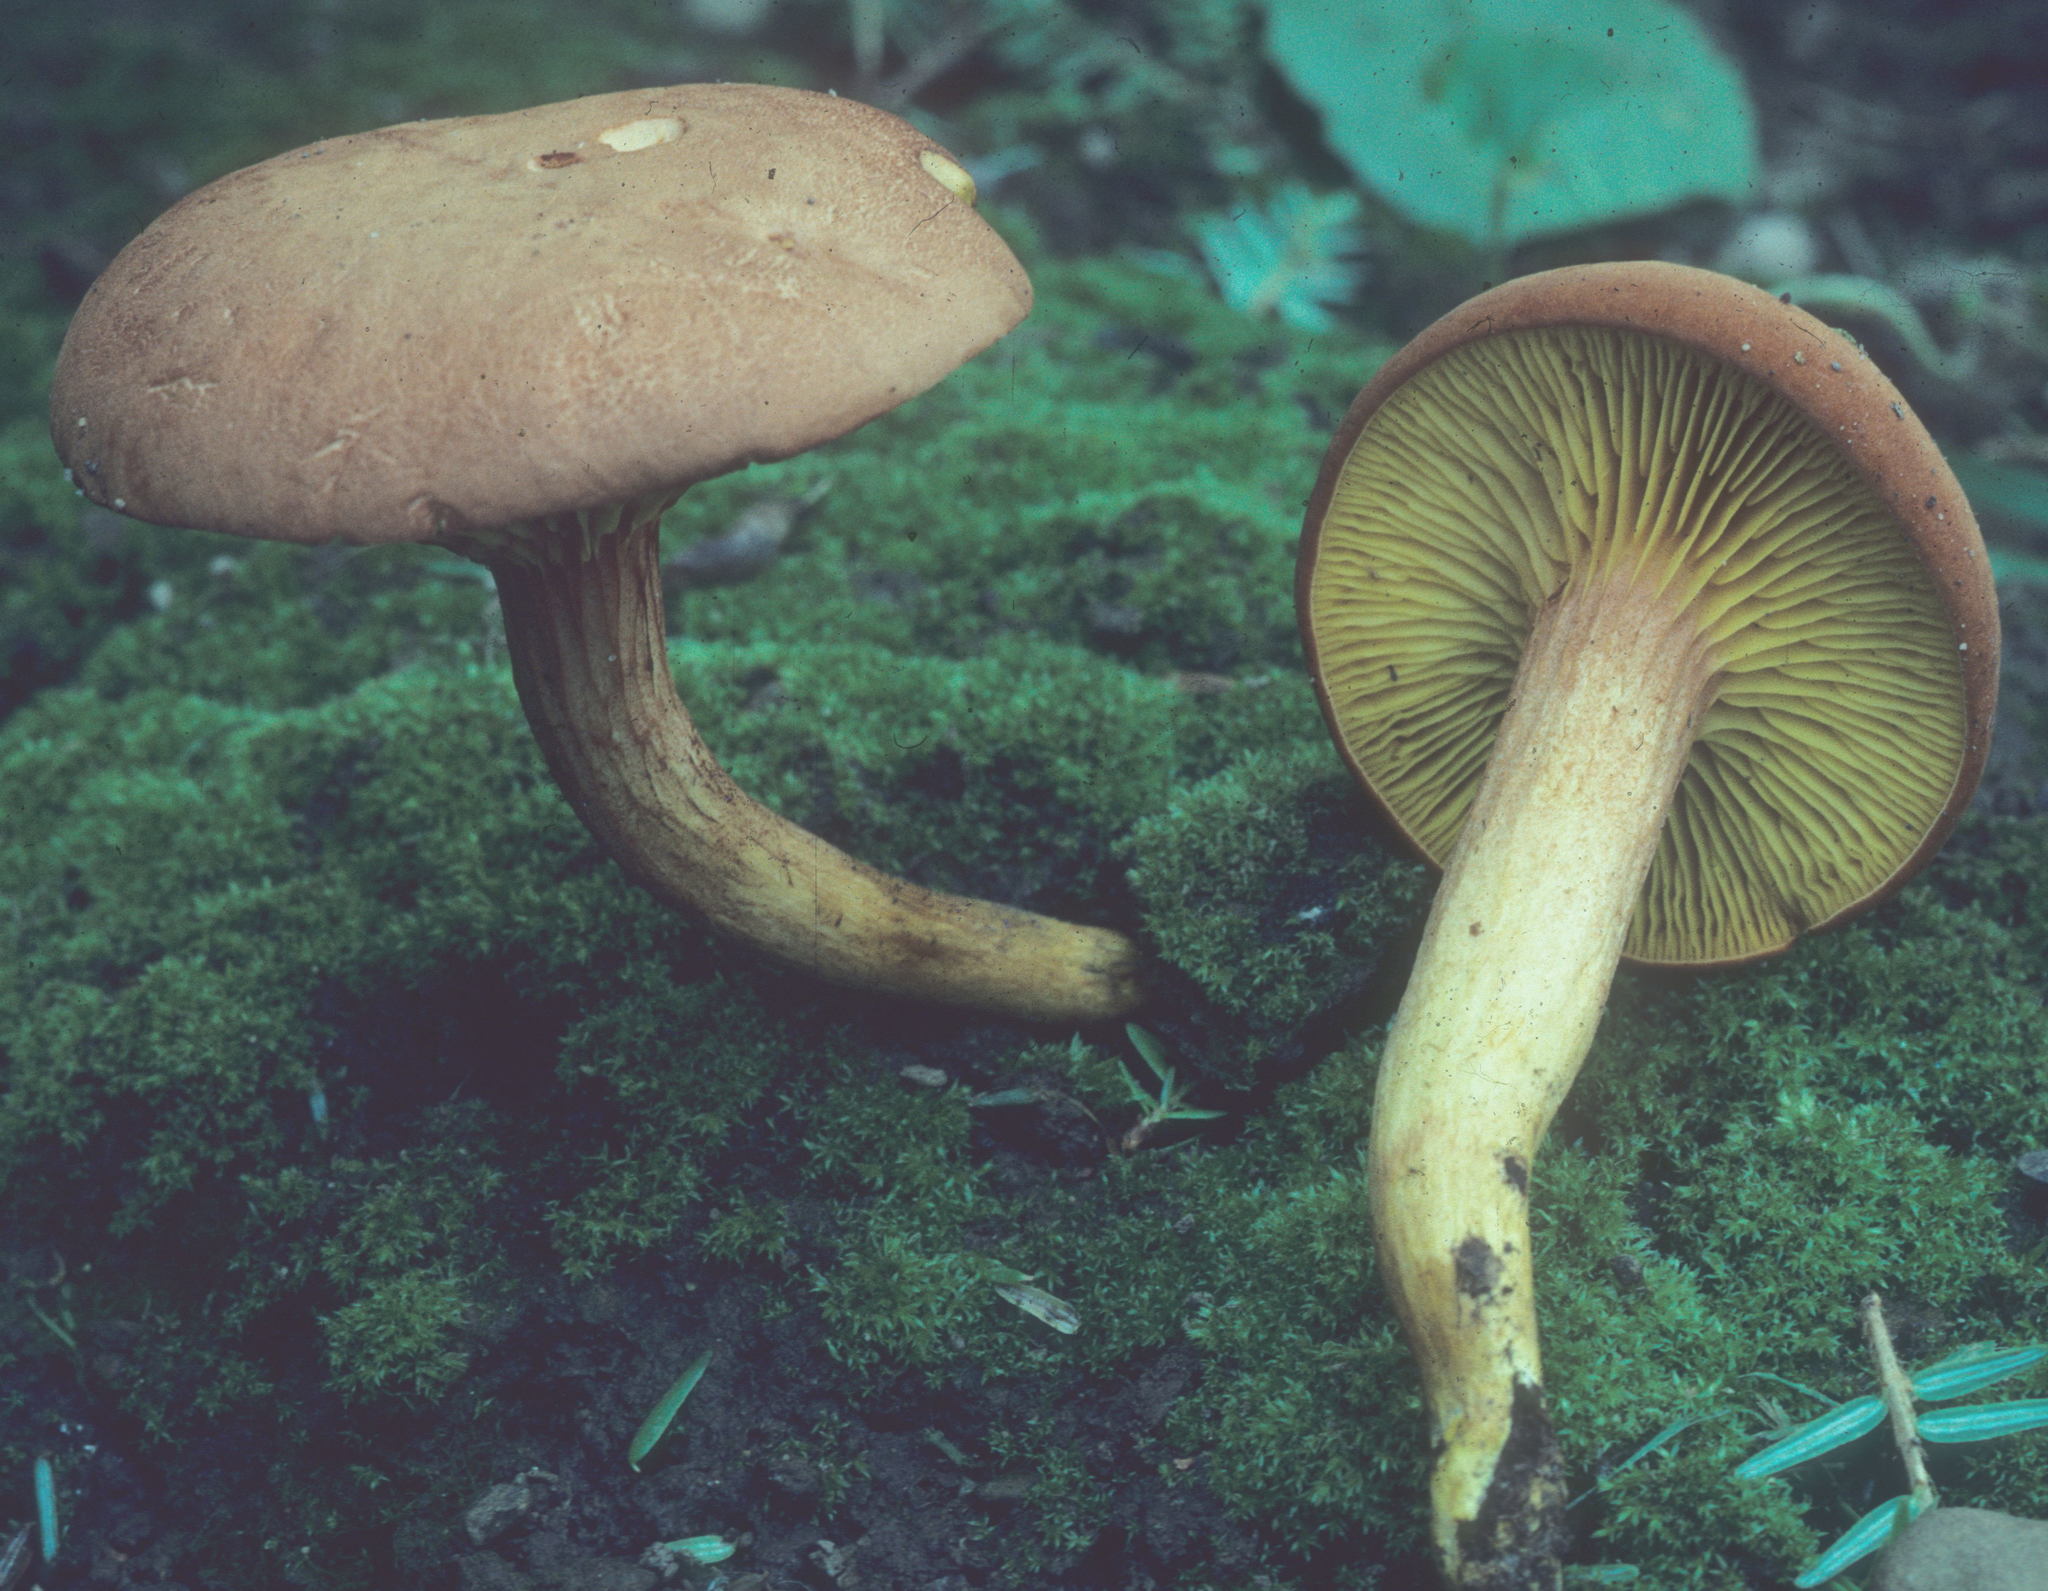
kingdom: Fungi
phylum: Basidiomycota
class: Agaricomycetes
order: Boletales
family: Boletaceae
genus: Phylloporus
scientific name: Phylloporus rhodoxanthus
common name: Golden gilled bolete
